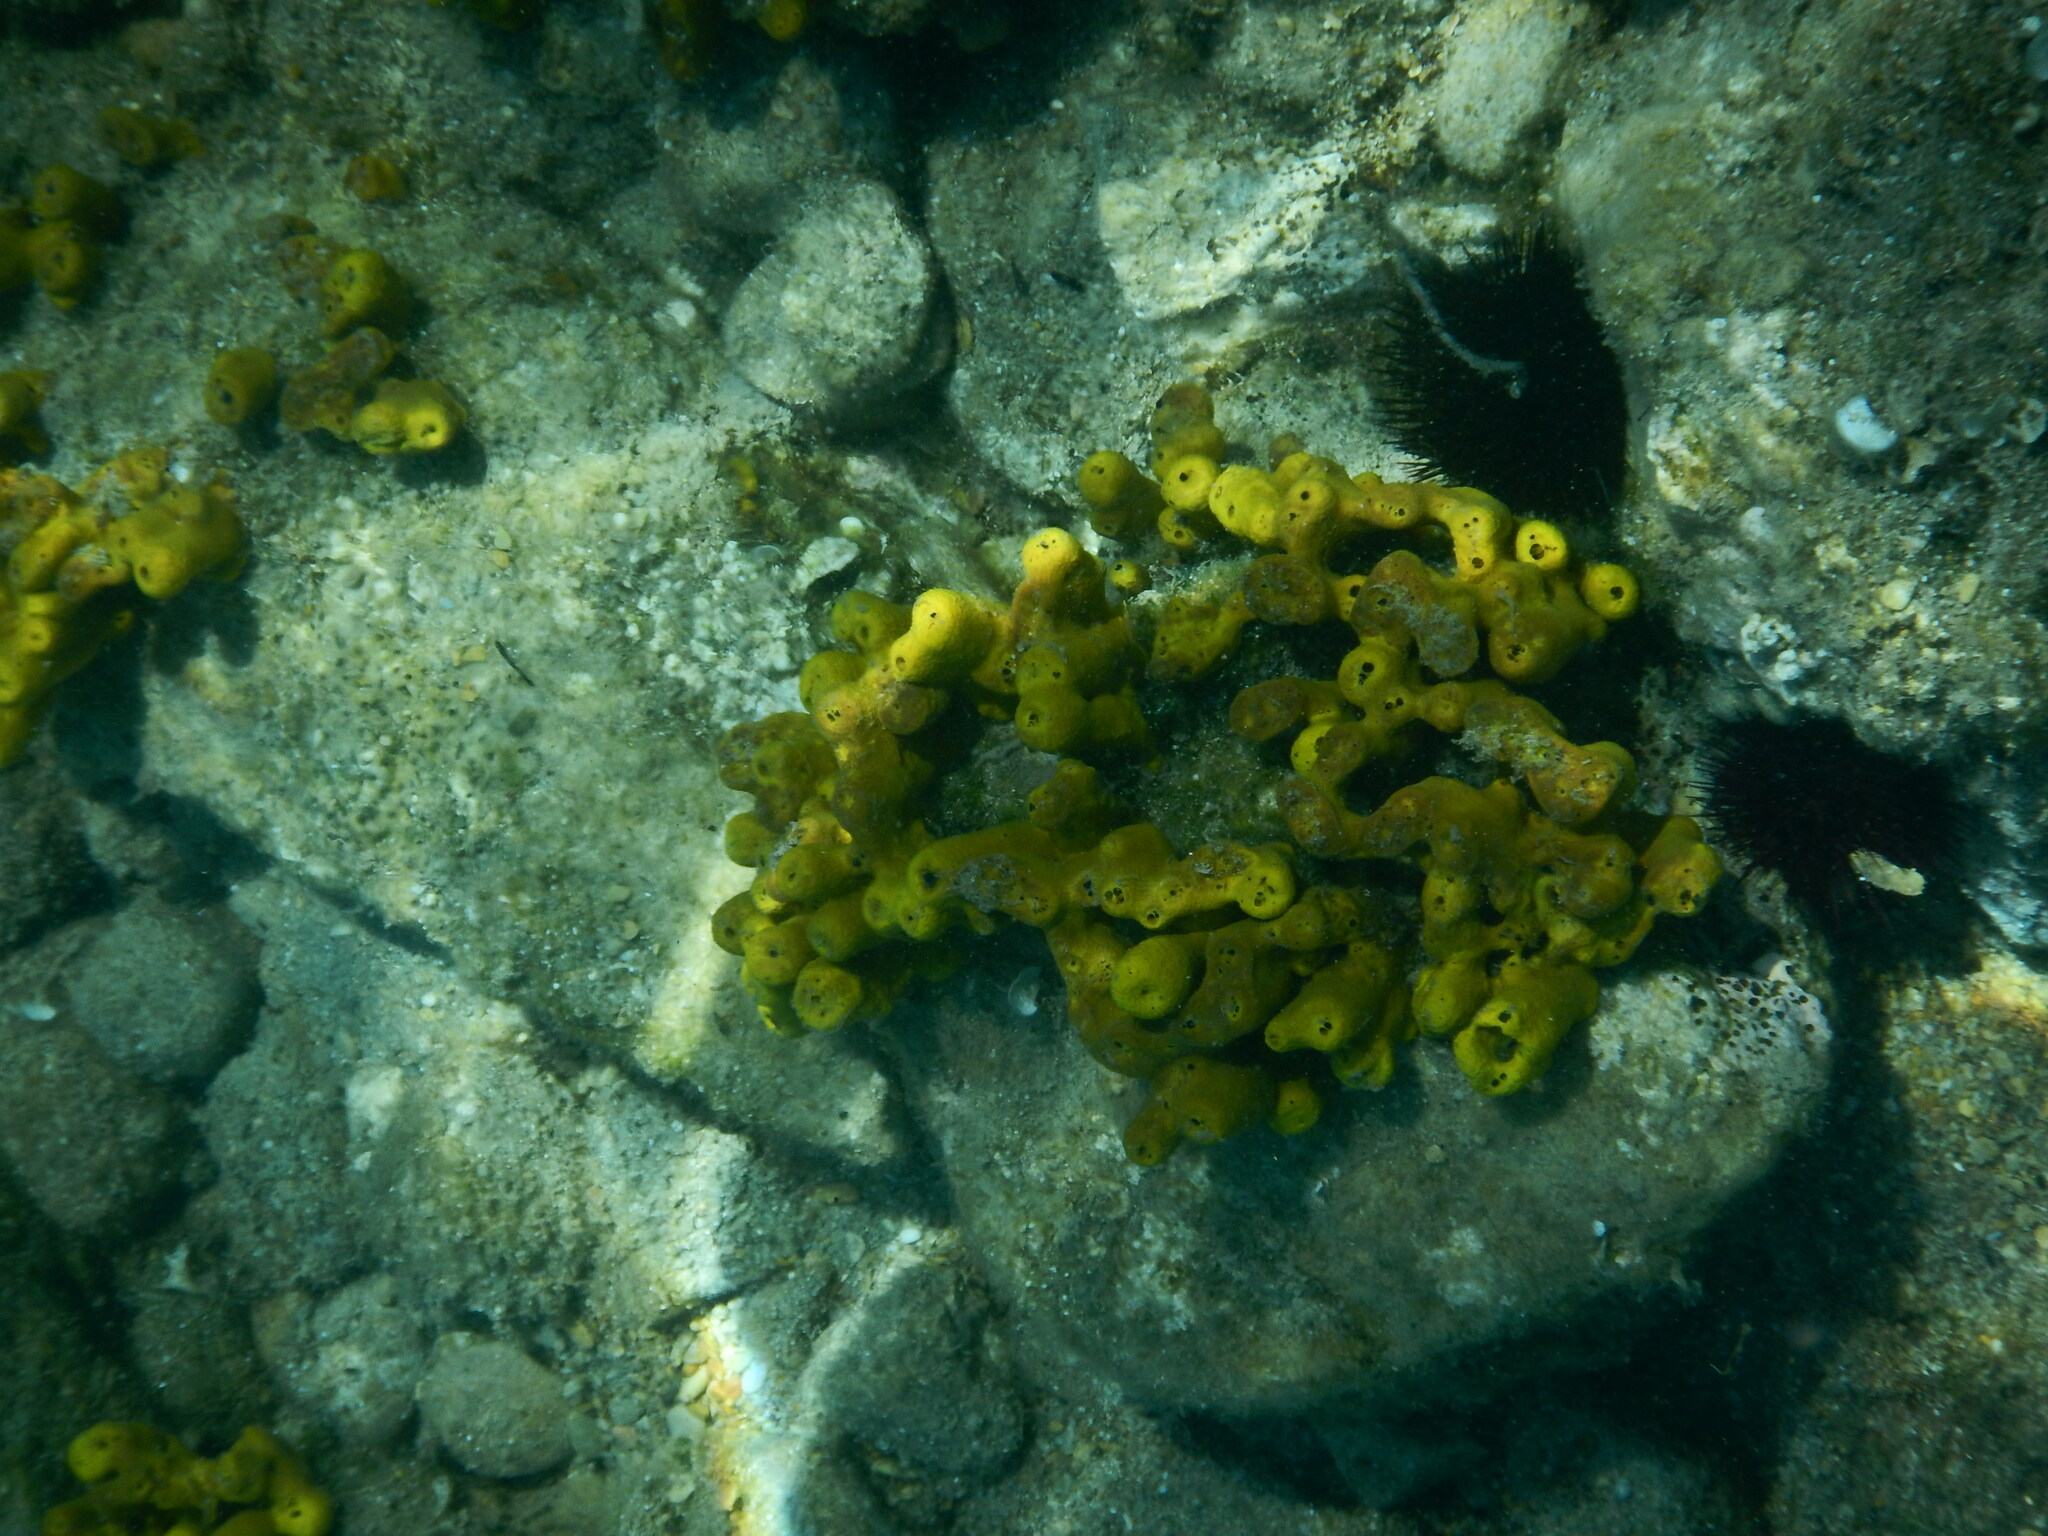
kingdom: Animalia
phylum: Porifera
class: Demospongiae
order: Verongiida
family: Aplysinidae
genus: Aplysina
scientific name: Aplysina aerophoba
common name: Aureate sponge
